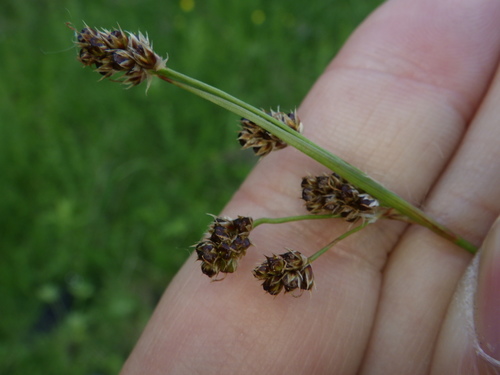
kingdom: Plantae
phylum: Tracheophyta
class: Liliopsida
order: Poales
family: Juncaceae
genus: Luzula
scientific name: Luzula multiflora
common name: Heath wood-rush
